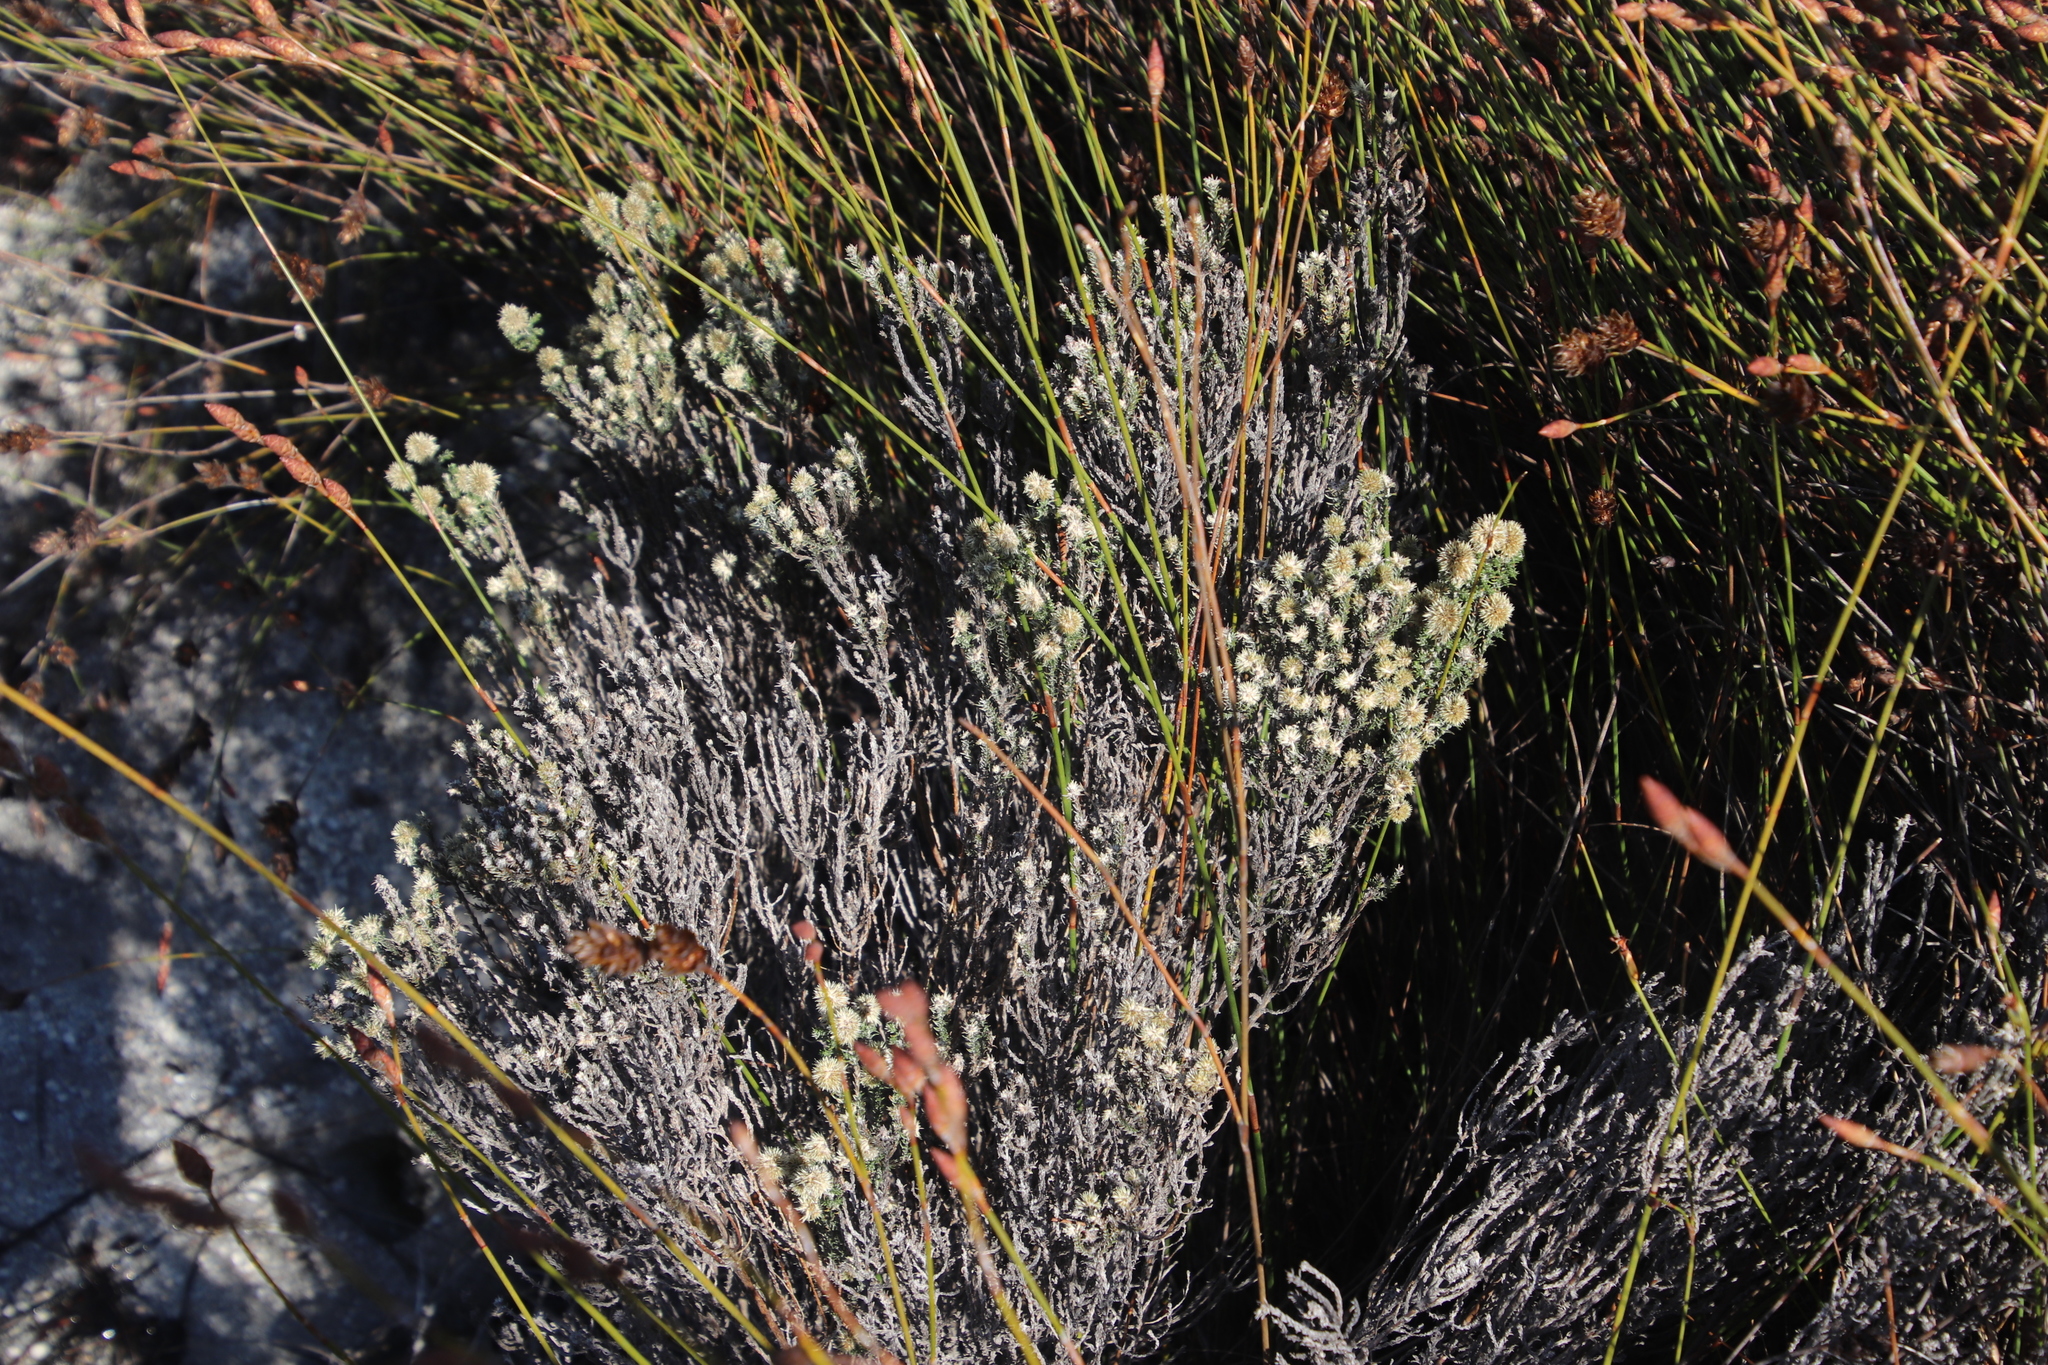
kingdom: Plantae
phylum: Tracheophyta
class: Magnoliopsida
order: Asterales
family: Asteraceae
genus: Seriphium
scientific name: Seriphium spirale
